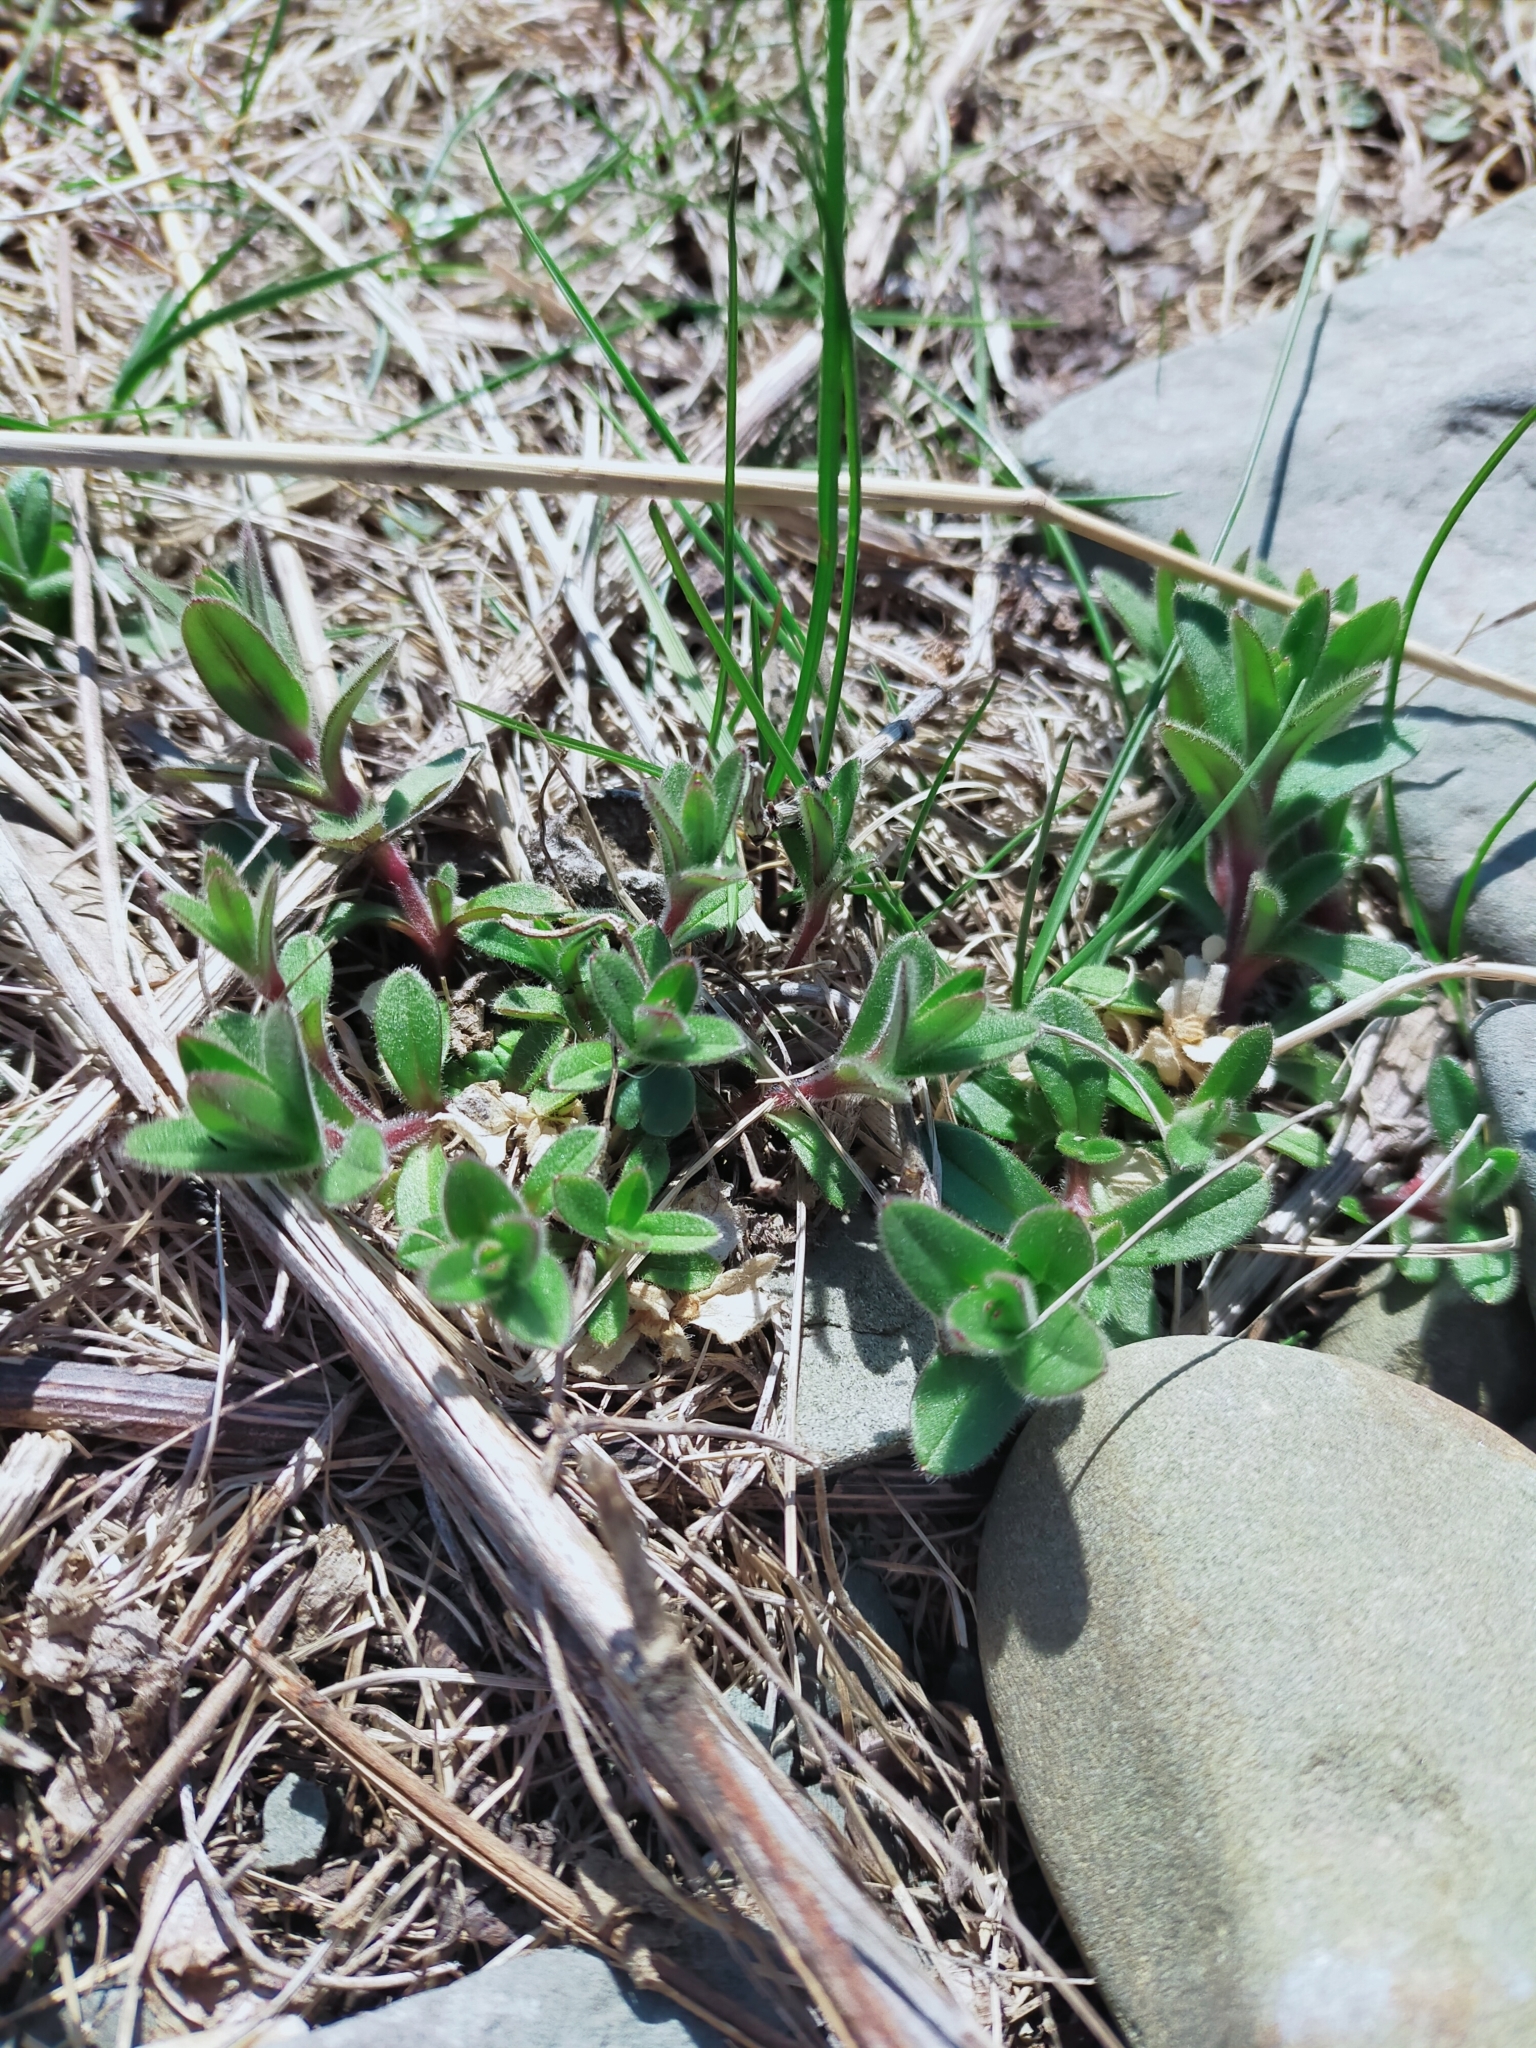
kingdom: Plantae
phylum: Tracheophyta
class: Magnoliopsida
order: Caryophyllales
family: Caryophyllaceae
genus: Cerastium
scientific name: Cerastium holosteoides
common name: Big chickweed
